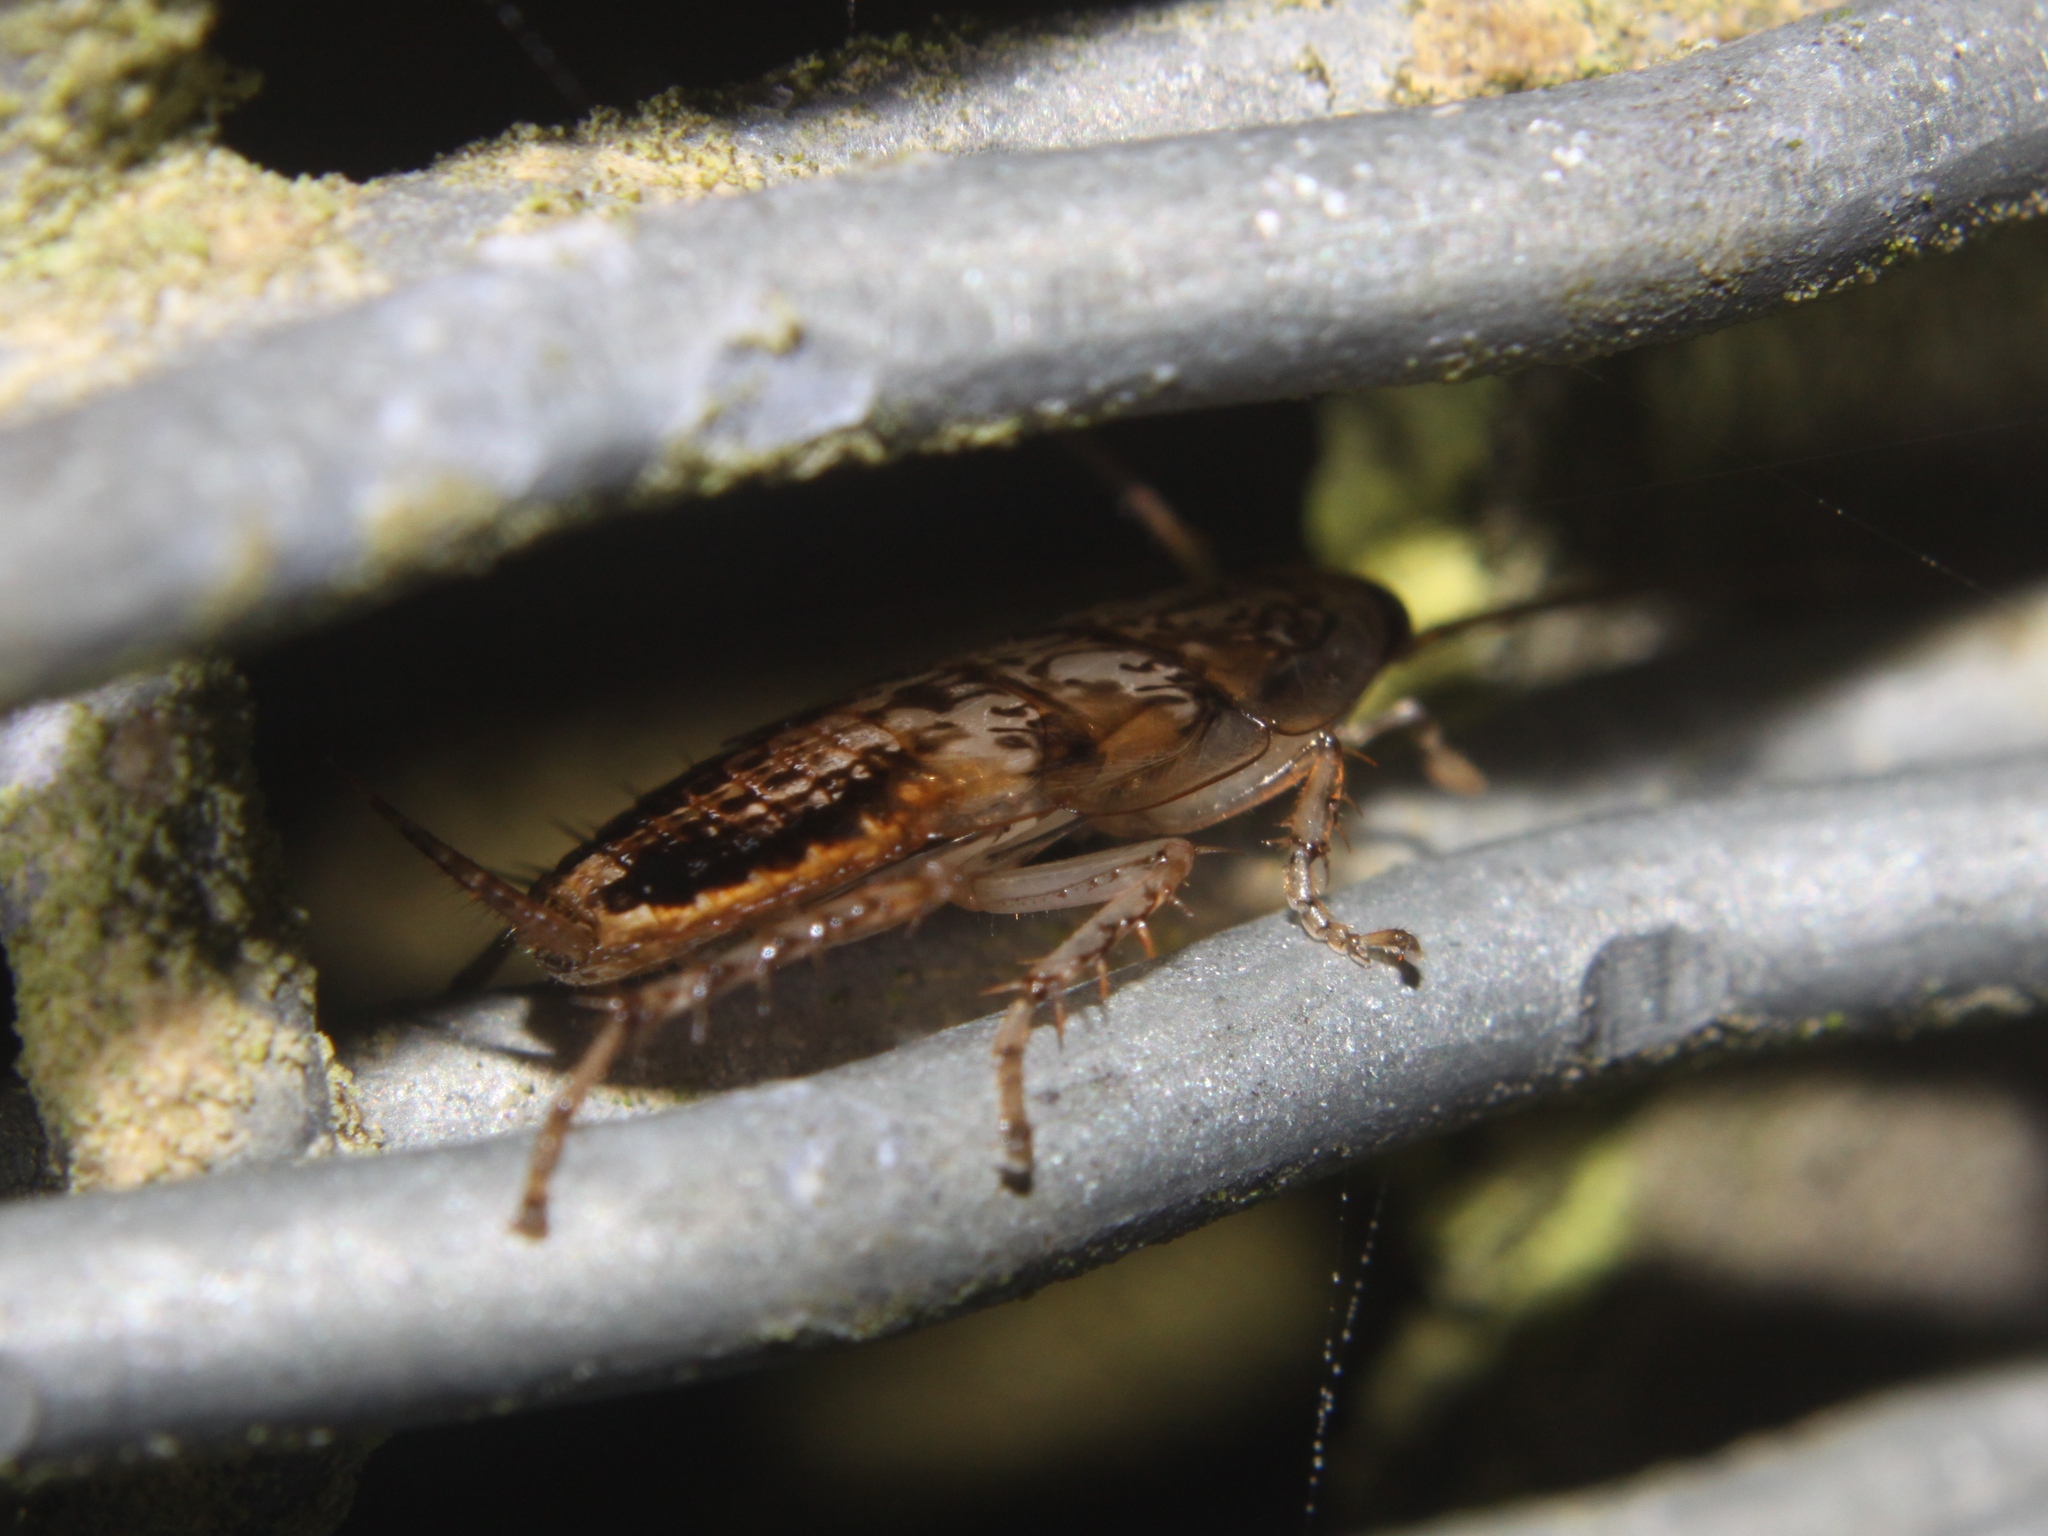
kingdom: Animalia
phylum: Arthropoda
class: Insecta
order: Blattodea
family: Ectobiidae
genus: Parellipsidion
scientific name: Parellipsidion latipenne
